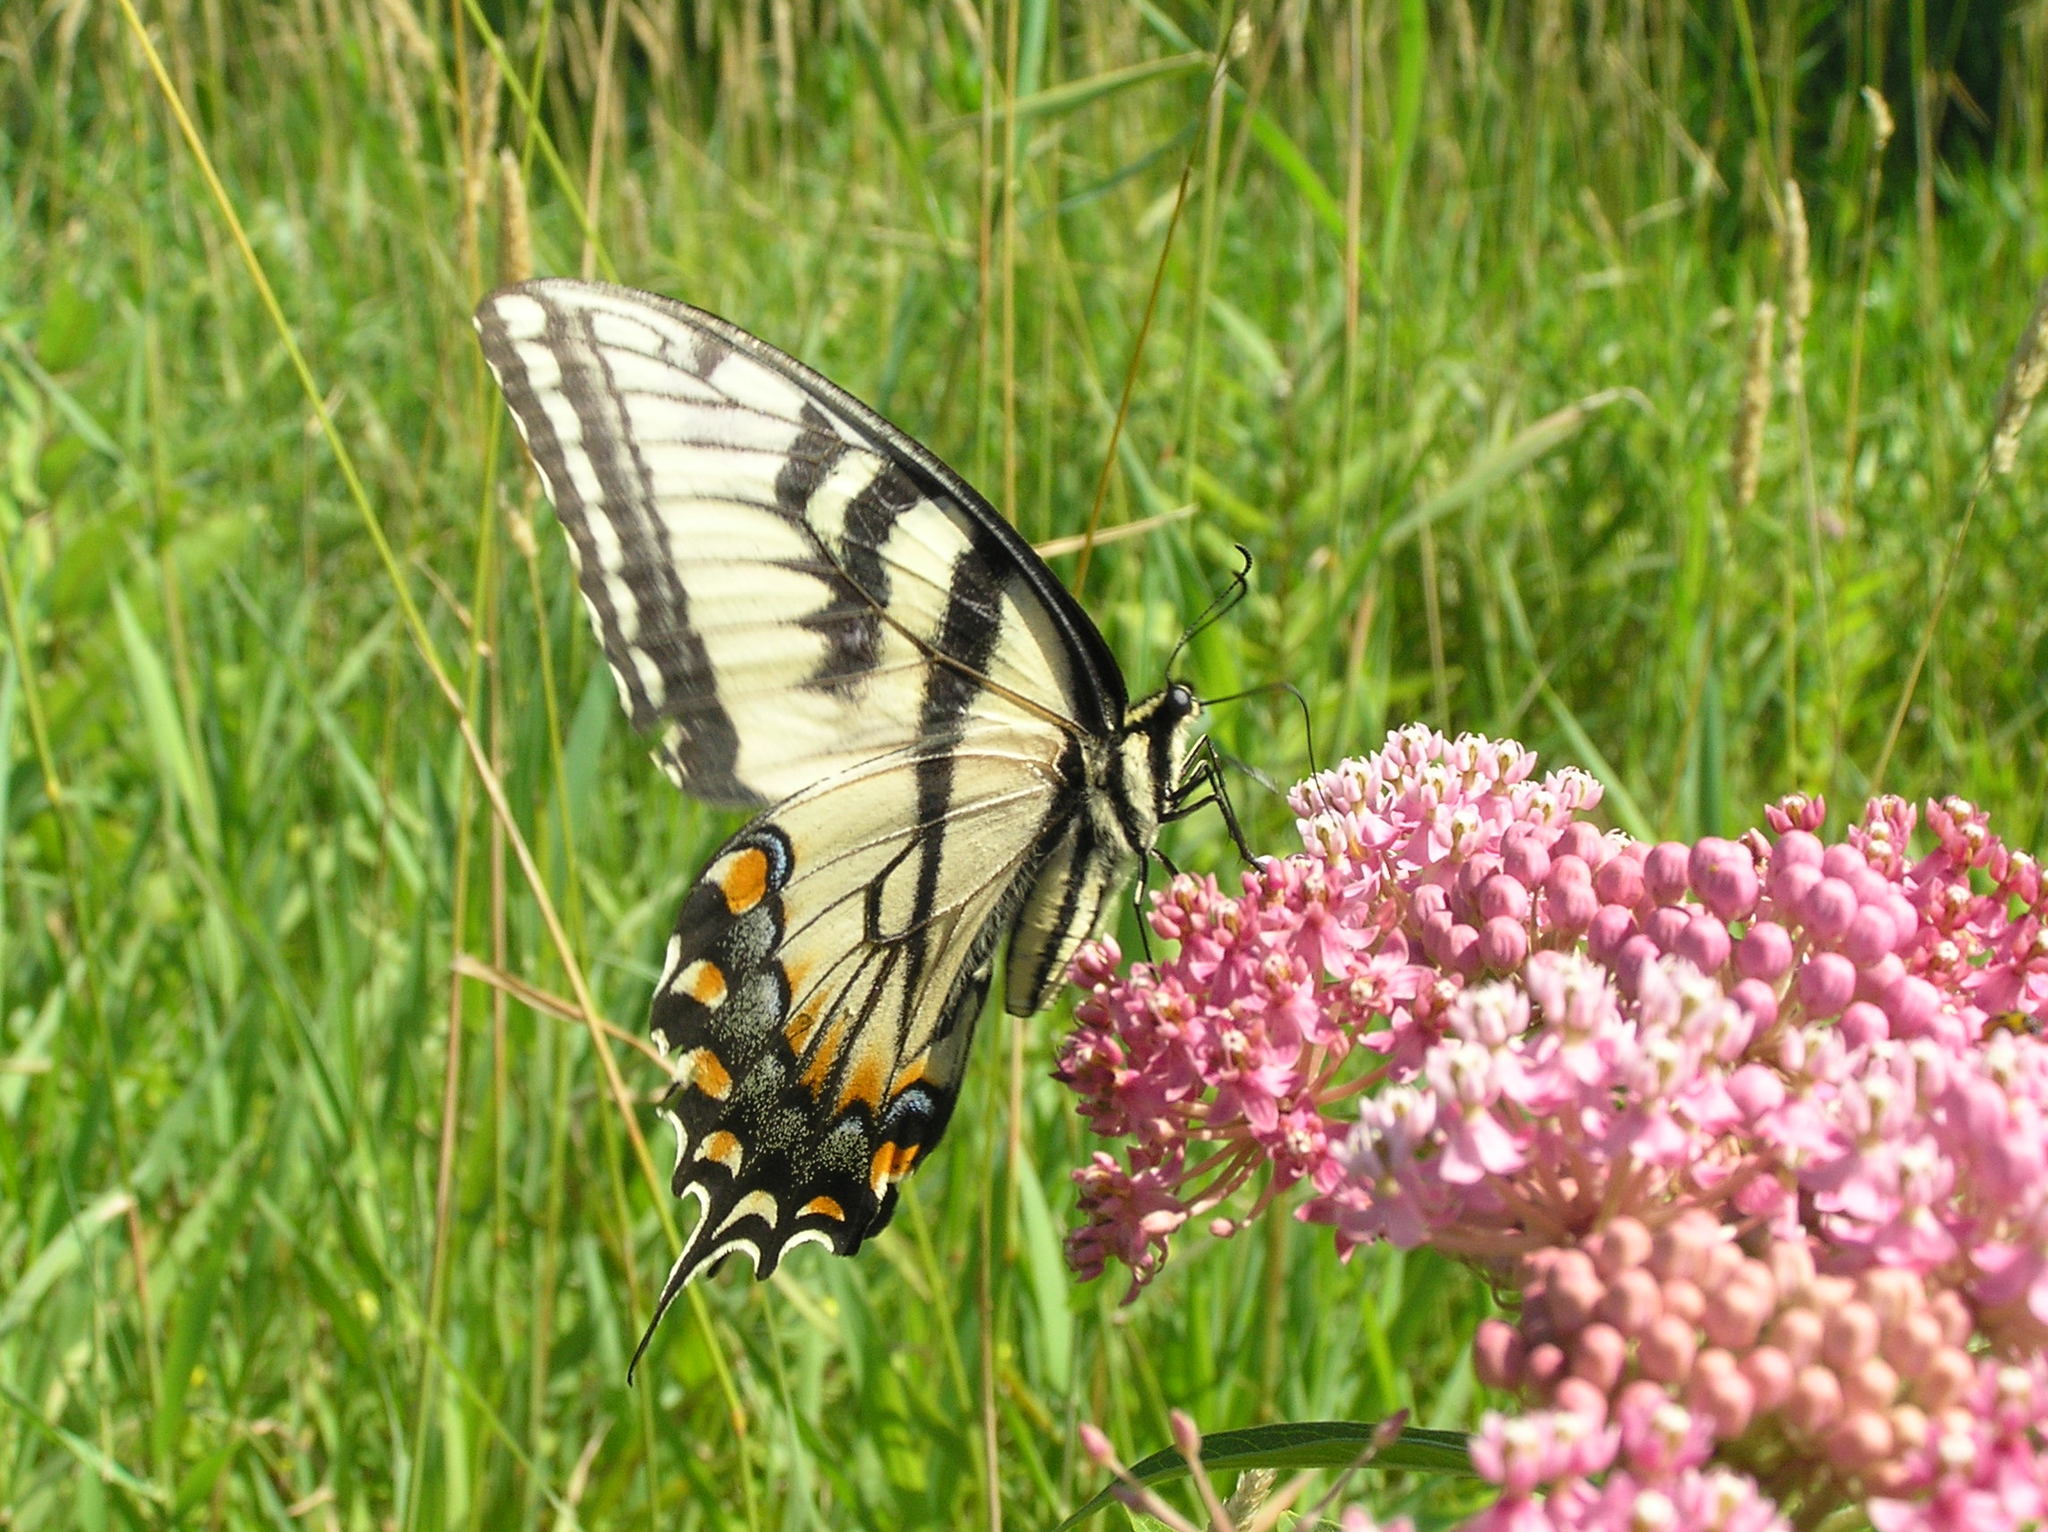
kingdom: Animalia
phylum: Arthropoda
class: Insecta
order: Lepidoptera
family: Papilionidae
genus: Papilio
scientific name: Papilio glaucus
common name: Tiger swallowtail
